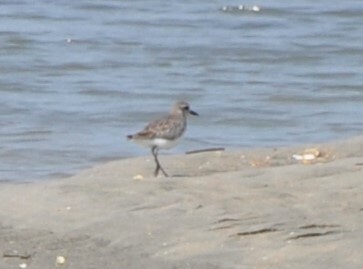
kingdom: Animalia
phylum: Chordata
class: Aves
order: Charadriiformes
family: Charadriidae
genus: Pluvialis
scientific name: Pluvialis squatarola
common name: Grey plover
